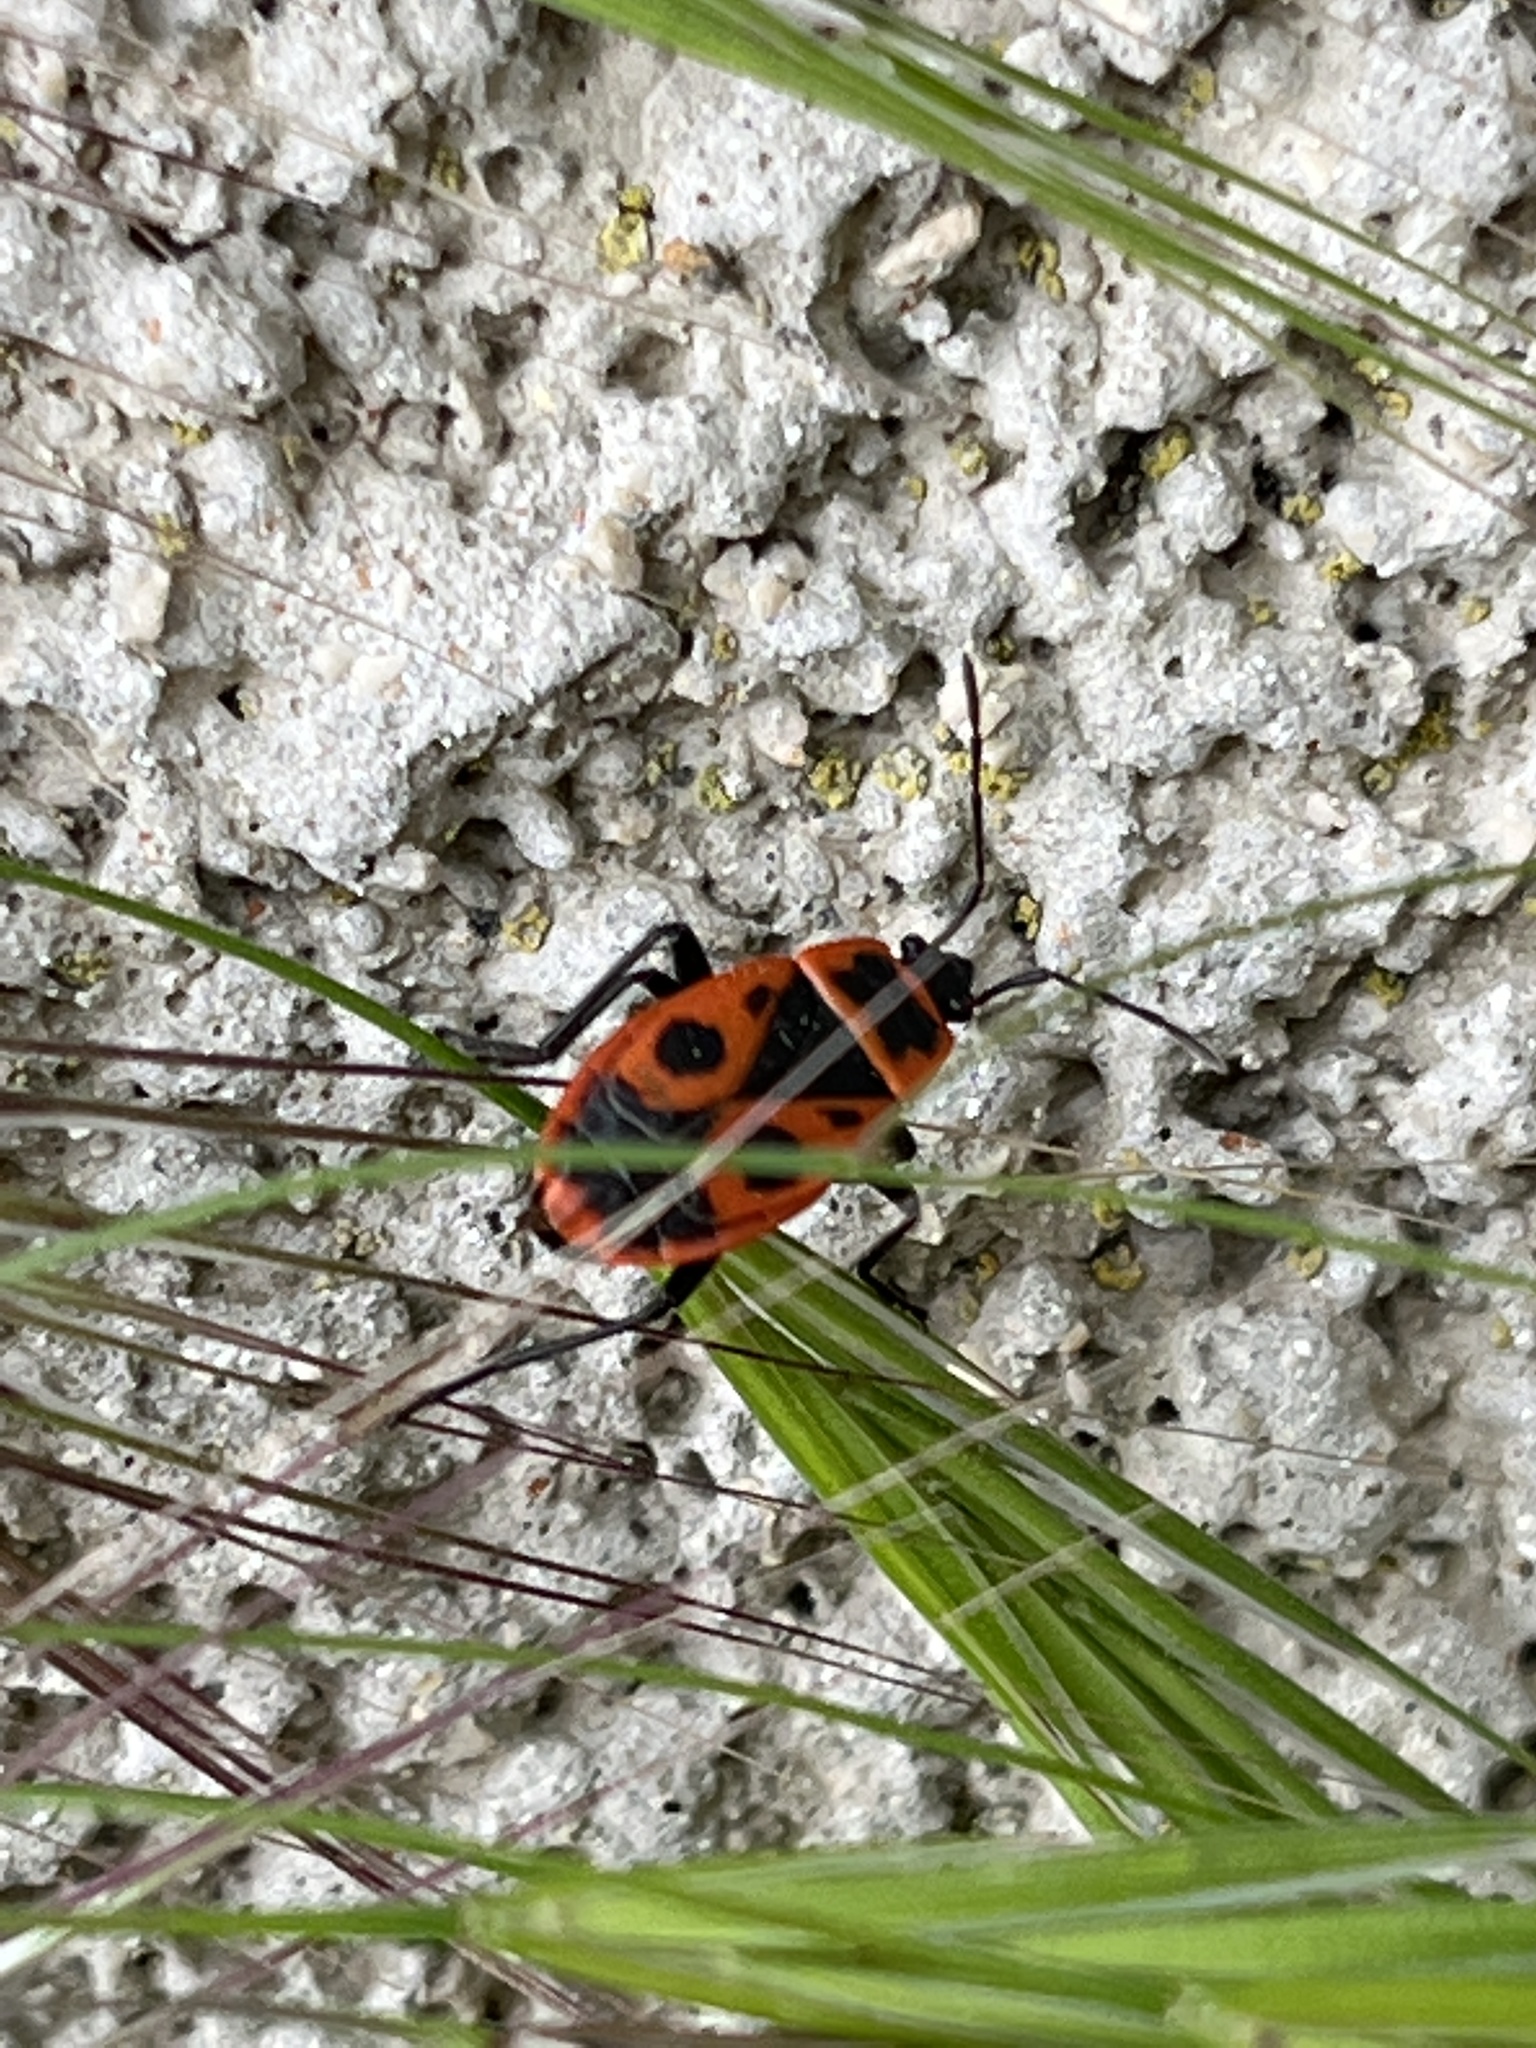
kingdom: Animalia
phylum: Arthropoda
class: Insecta
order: Hemiptera
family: Pyrrhocoridae
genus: Pyrrhocoris
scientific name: Pyrrhocoris apterus
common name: Firebug
